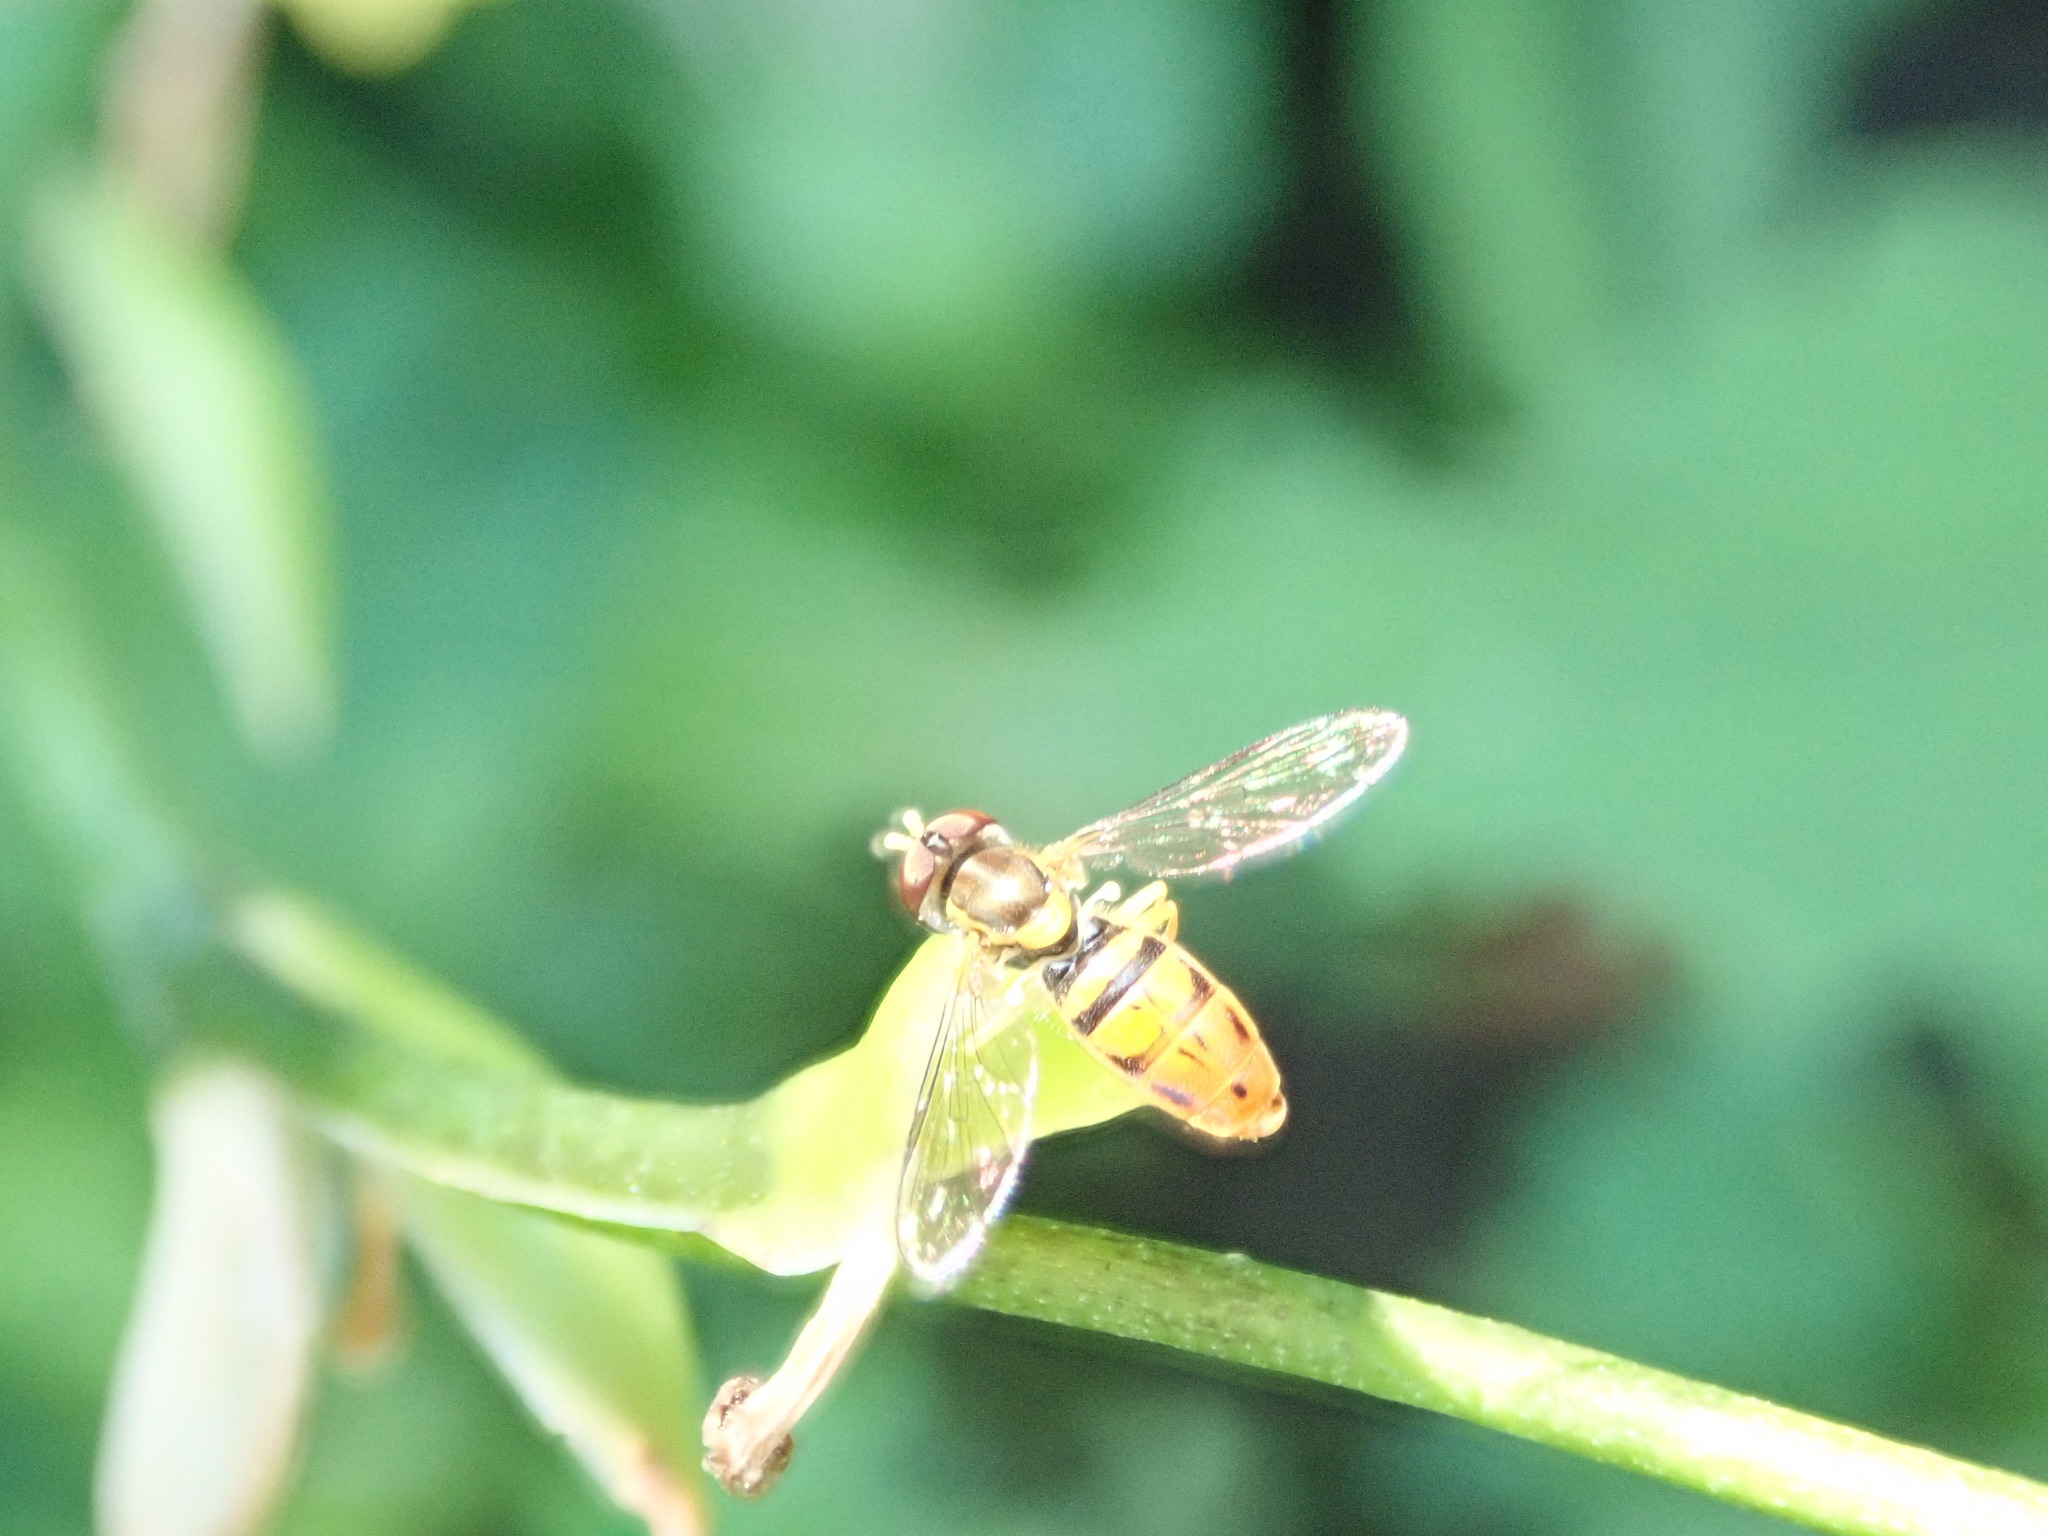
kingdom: Animalia
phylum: Arthropoda
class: Insecta
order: Diptera
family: Syrphidae
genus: Toxomerus
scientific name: Toxomerus marginatus
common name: Syrphid fly
